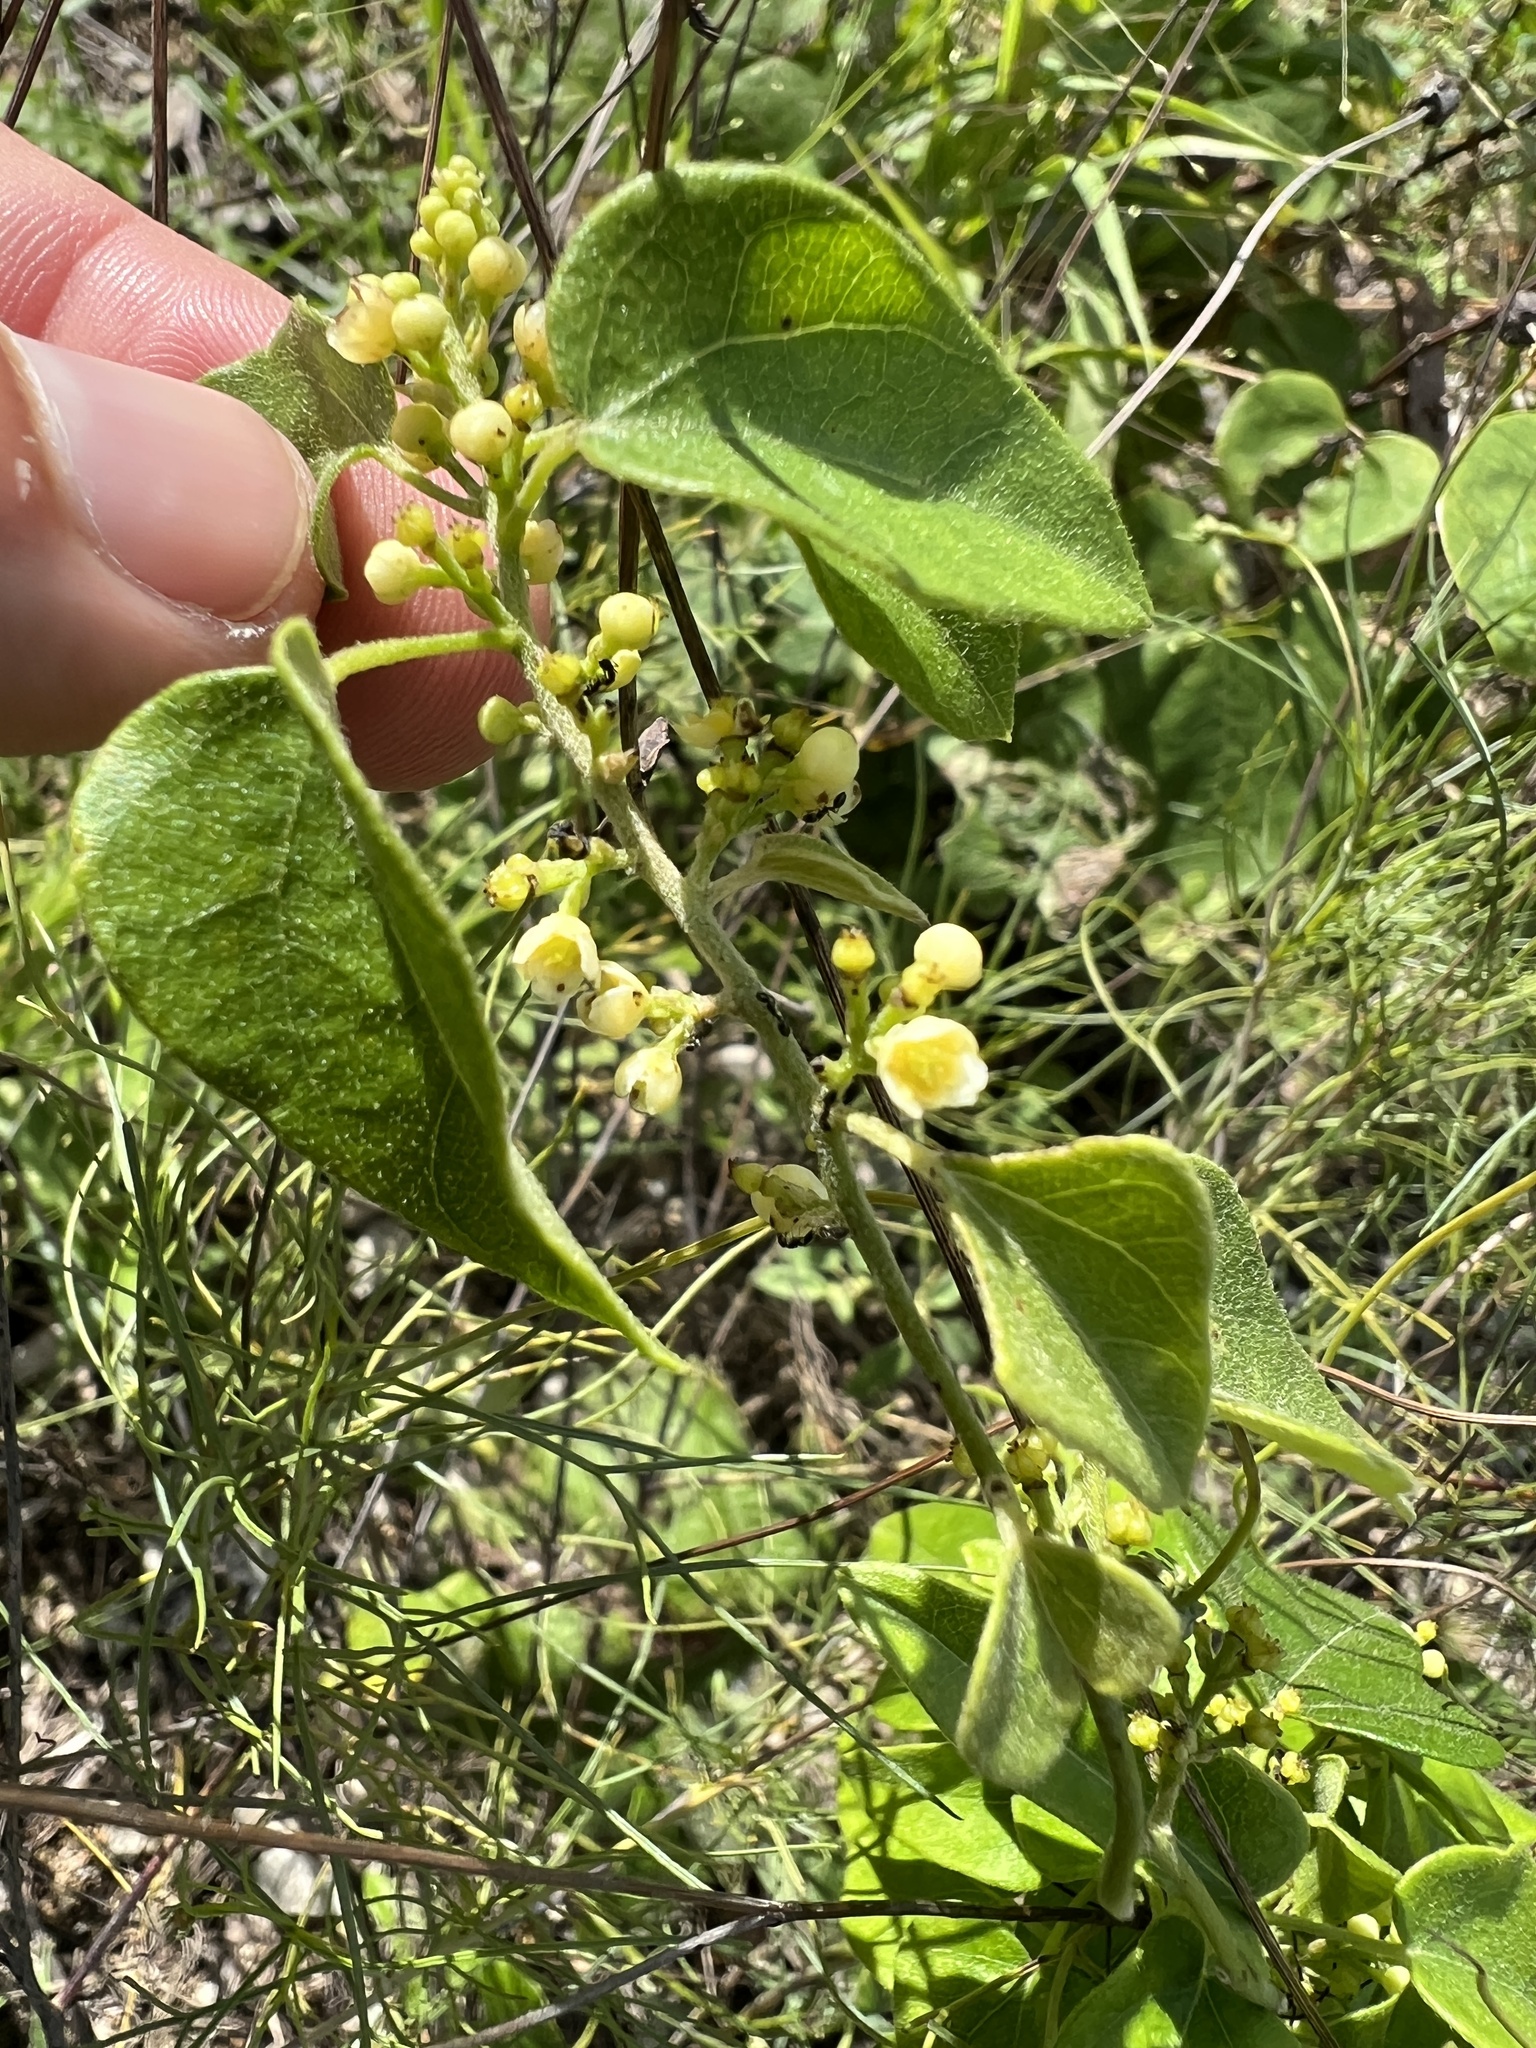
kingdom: Plantae
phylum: Tracheophyta
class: Magnoliopsida
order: Ranunculales
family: Menispermaceae
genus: Cocculus
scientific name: Cocculus carolinus
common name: Carolina moonseed
